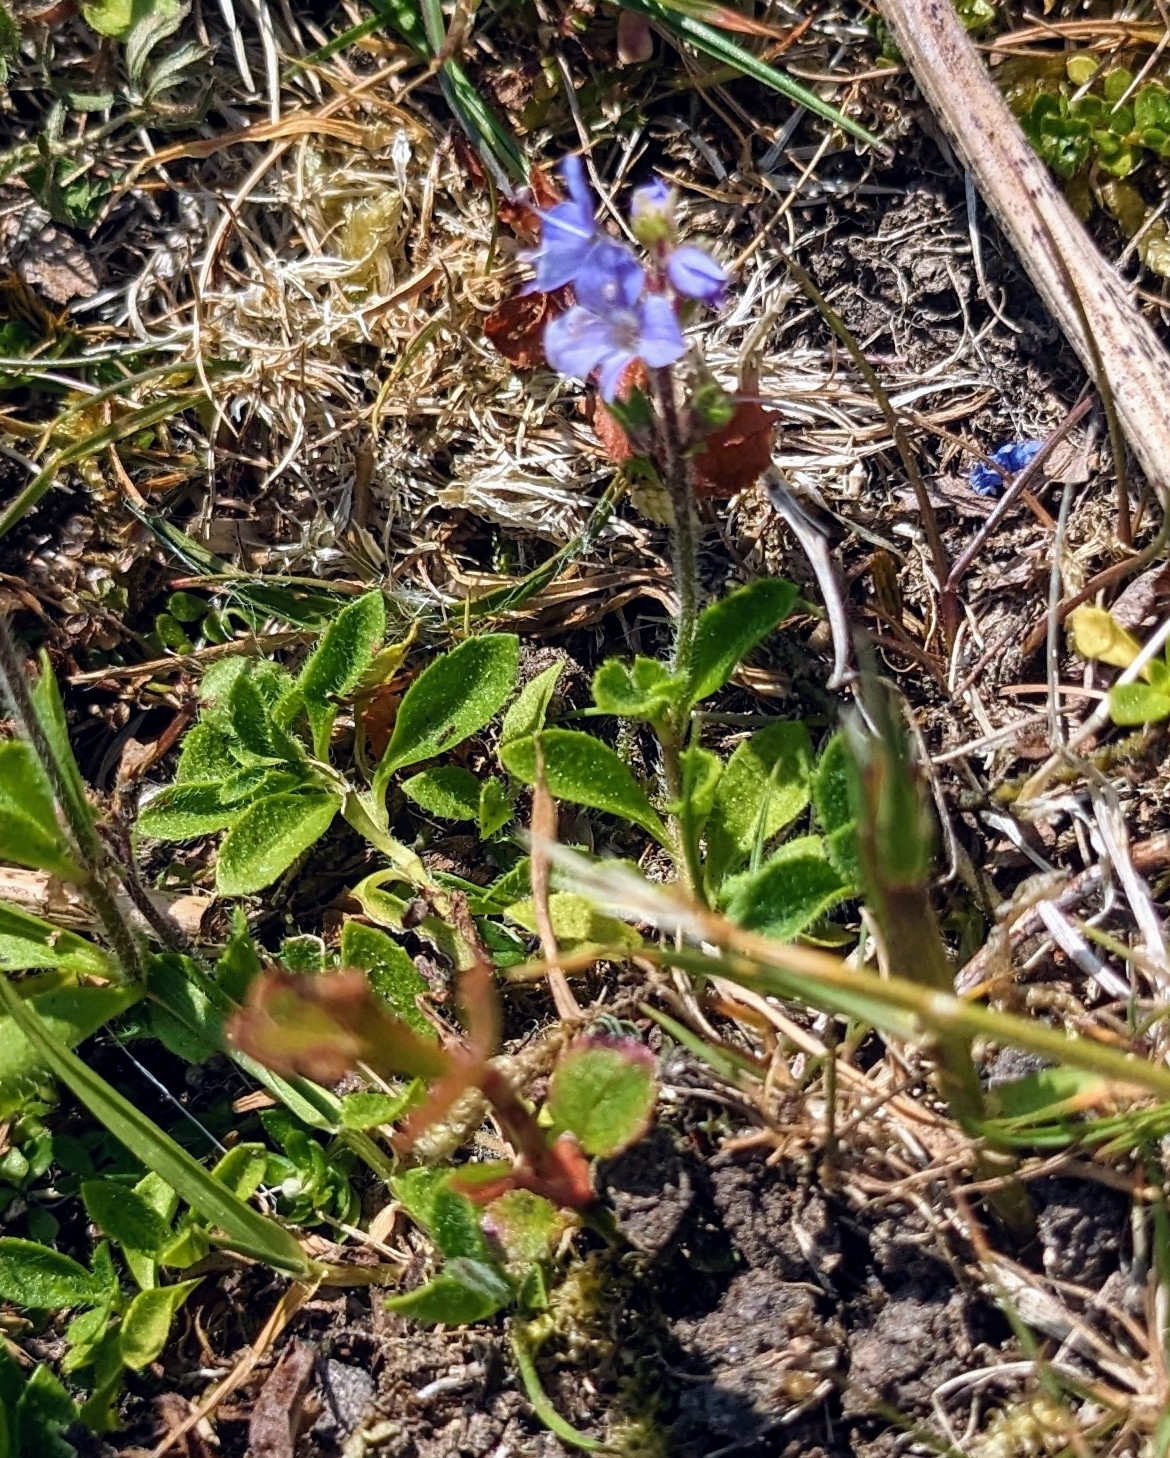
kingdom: Plantae
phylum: Tracheophyta
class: Magnoliopsida
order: Lamiales
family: Plantaginaceae
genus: Veronica
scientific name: Veronica officinalis
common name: Common speedwell
